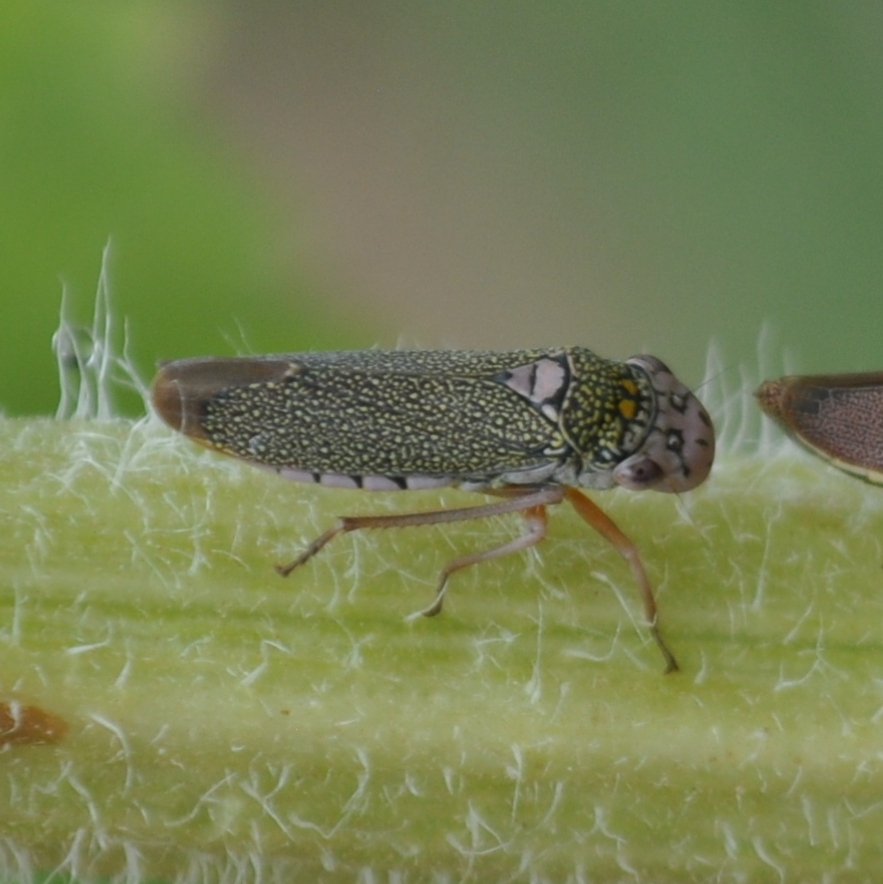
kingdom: Animalia
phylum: Arthropoda
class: Insecta
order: Hemiptera
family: Cicadellidae
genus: Molomea
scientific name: Molomea flavolimbata
